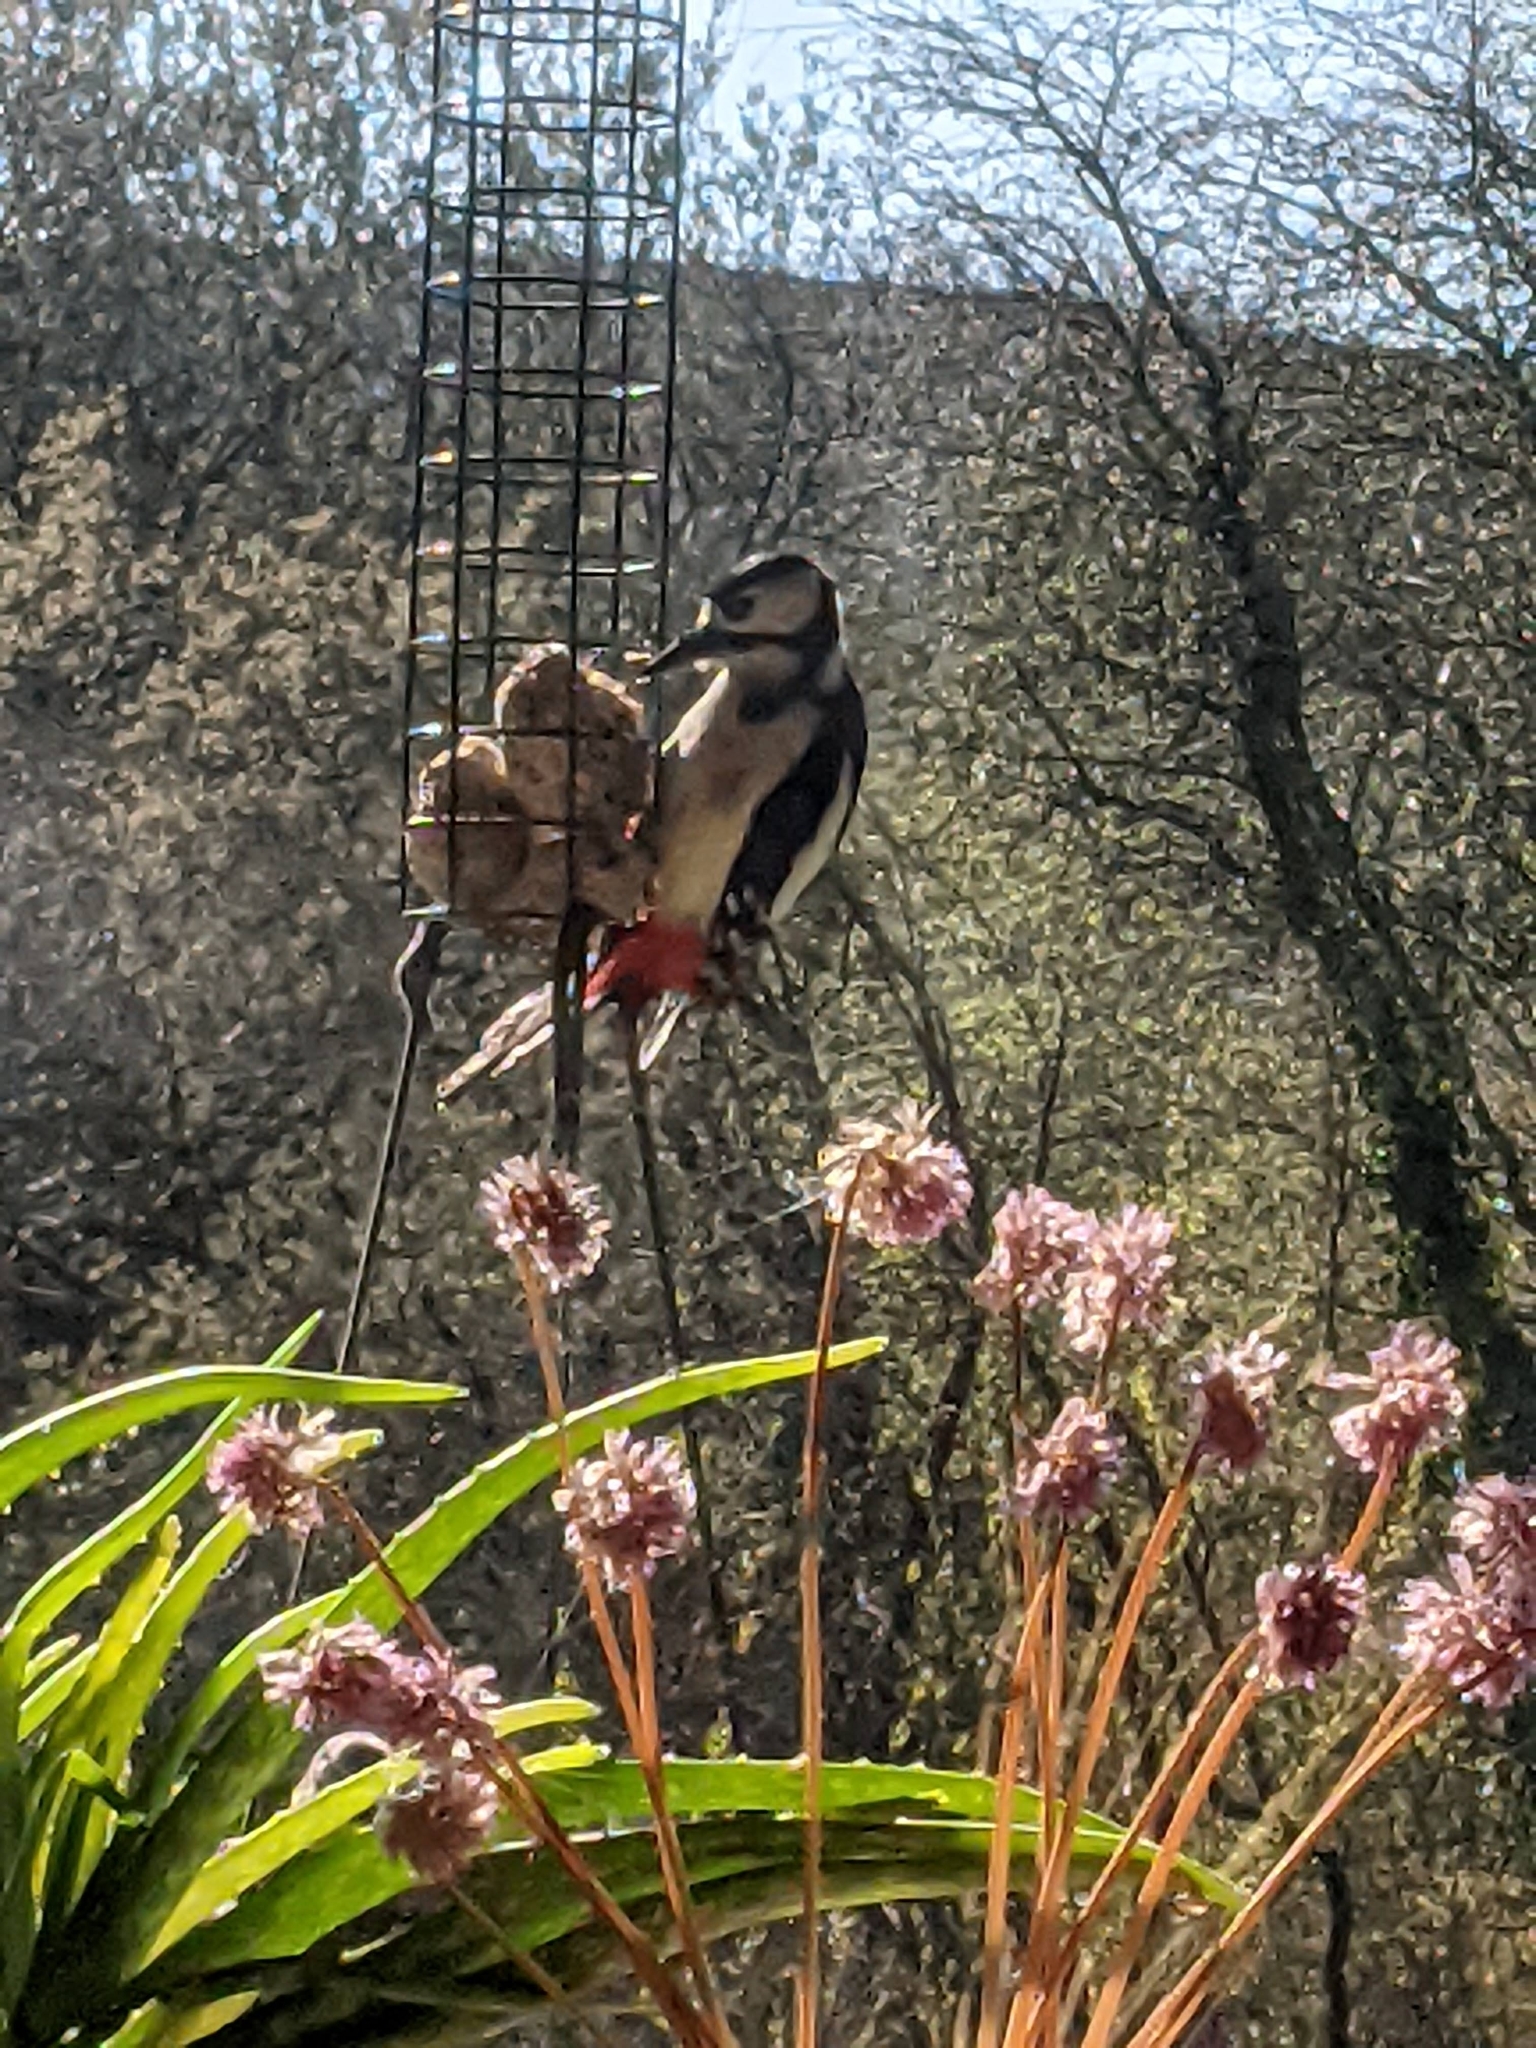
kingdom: Animalia
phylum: Chordata
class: Aves
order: Piciformes
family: Picidae
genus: Dendrocopos
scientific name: Dendrocopos major
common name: Great spotted woodpecker
